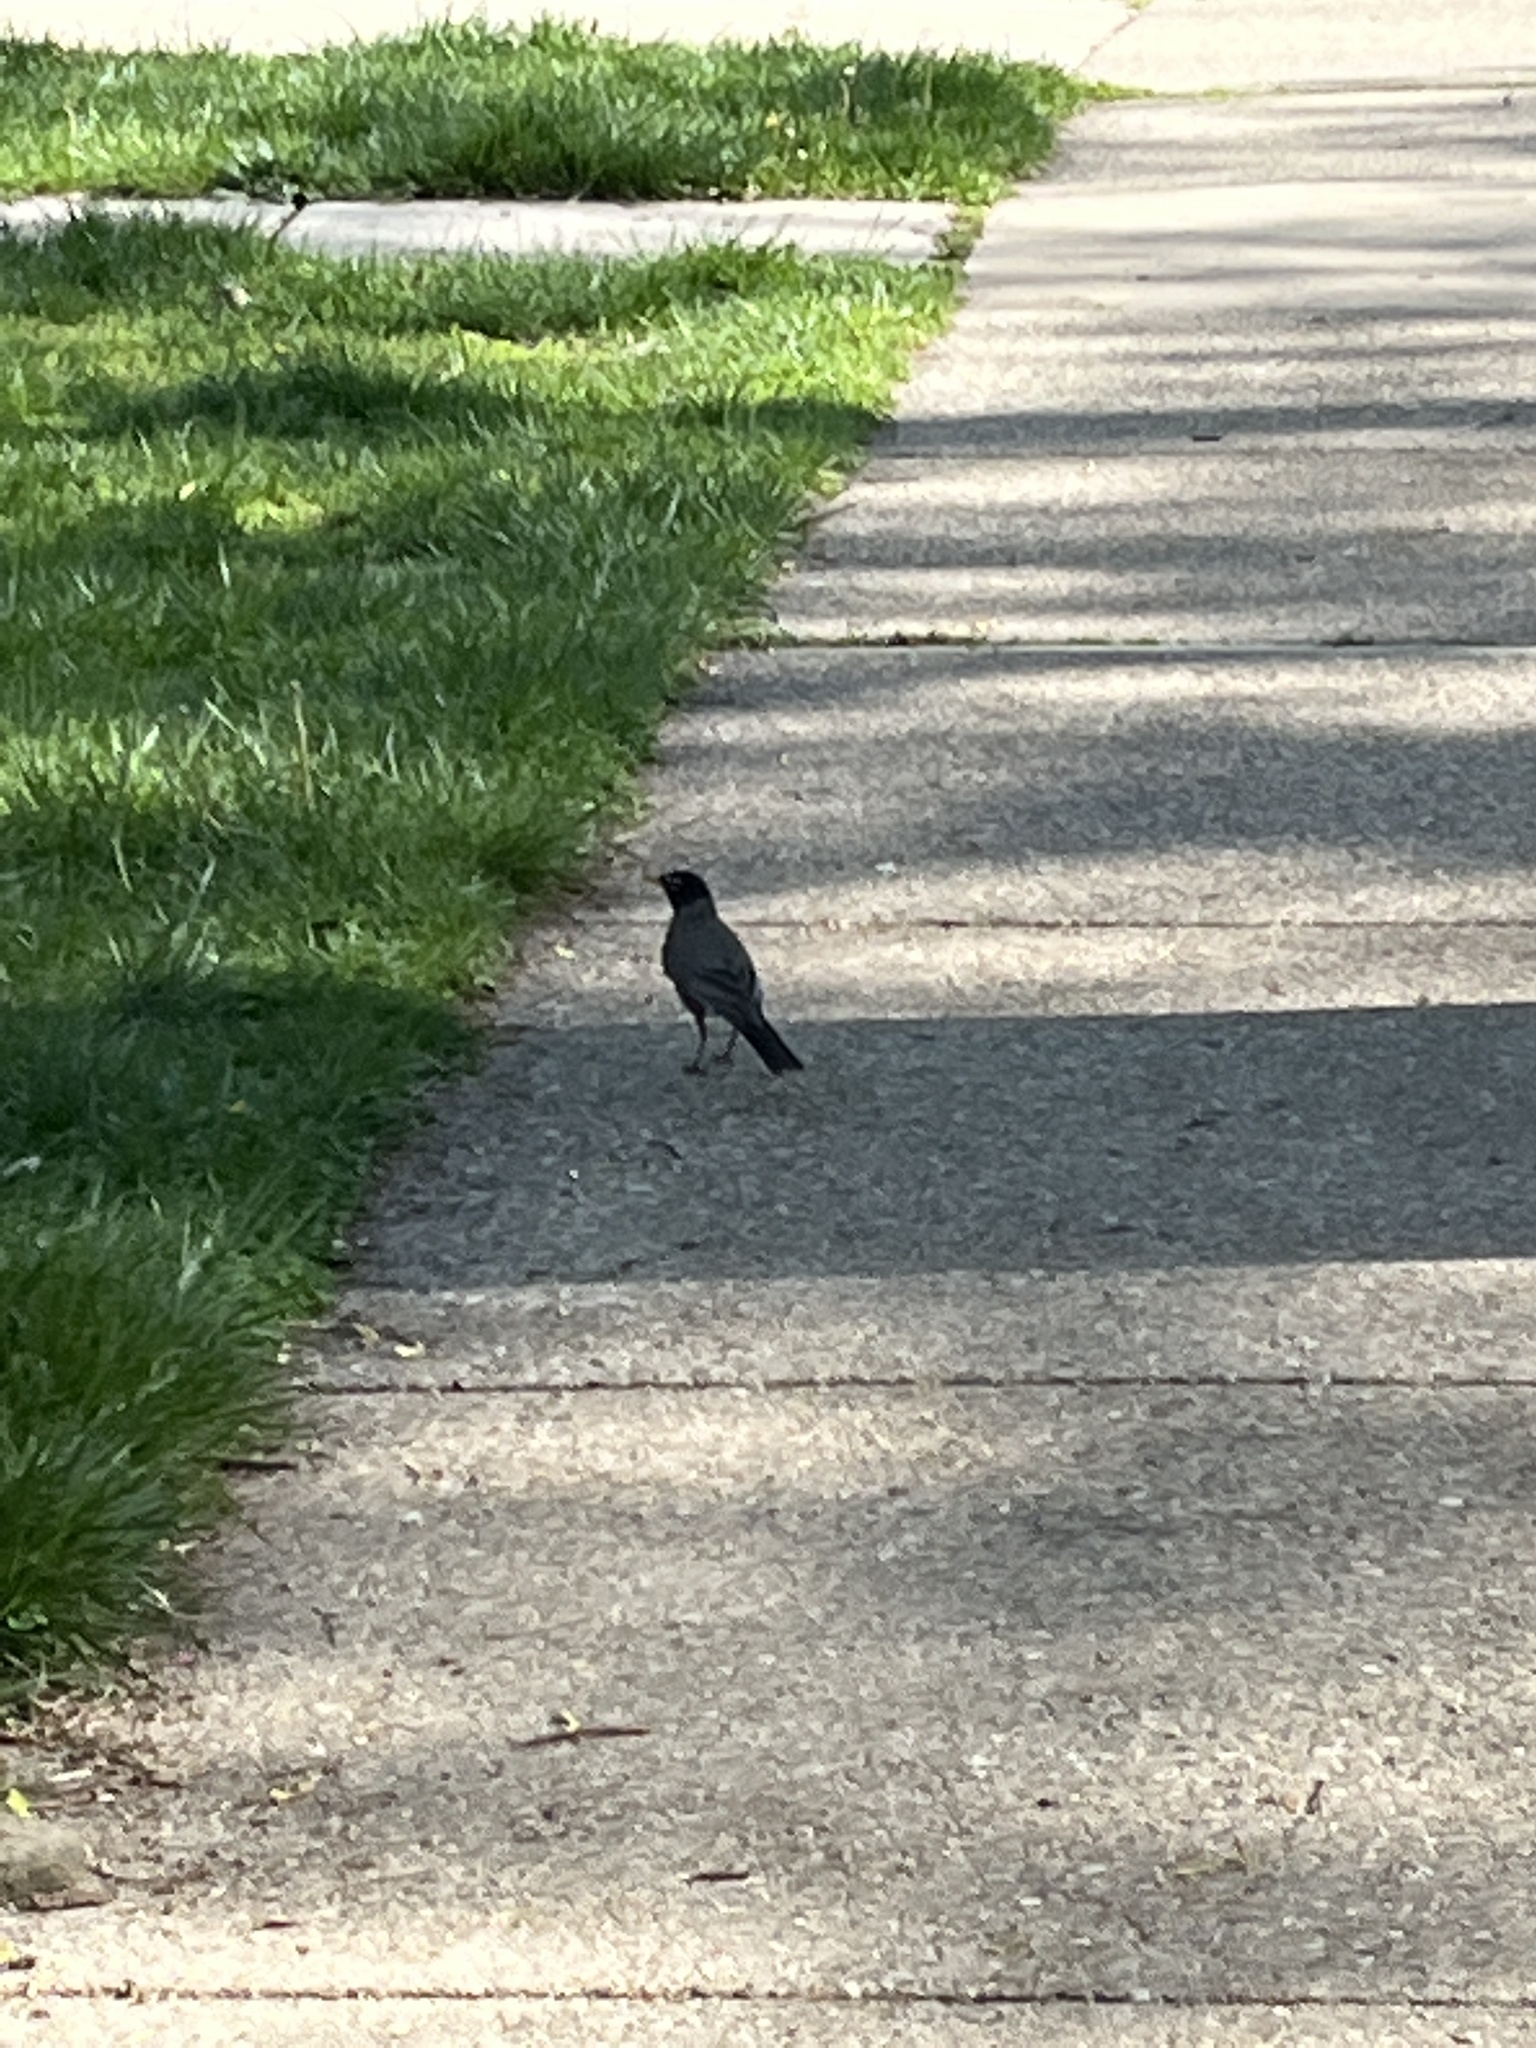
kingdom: Animalia
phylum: Chordata
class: Aves
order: Passeriformes
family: Turdidae
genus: Turdus
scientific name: Turdus migratorius
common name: American robin
